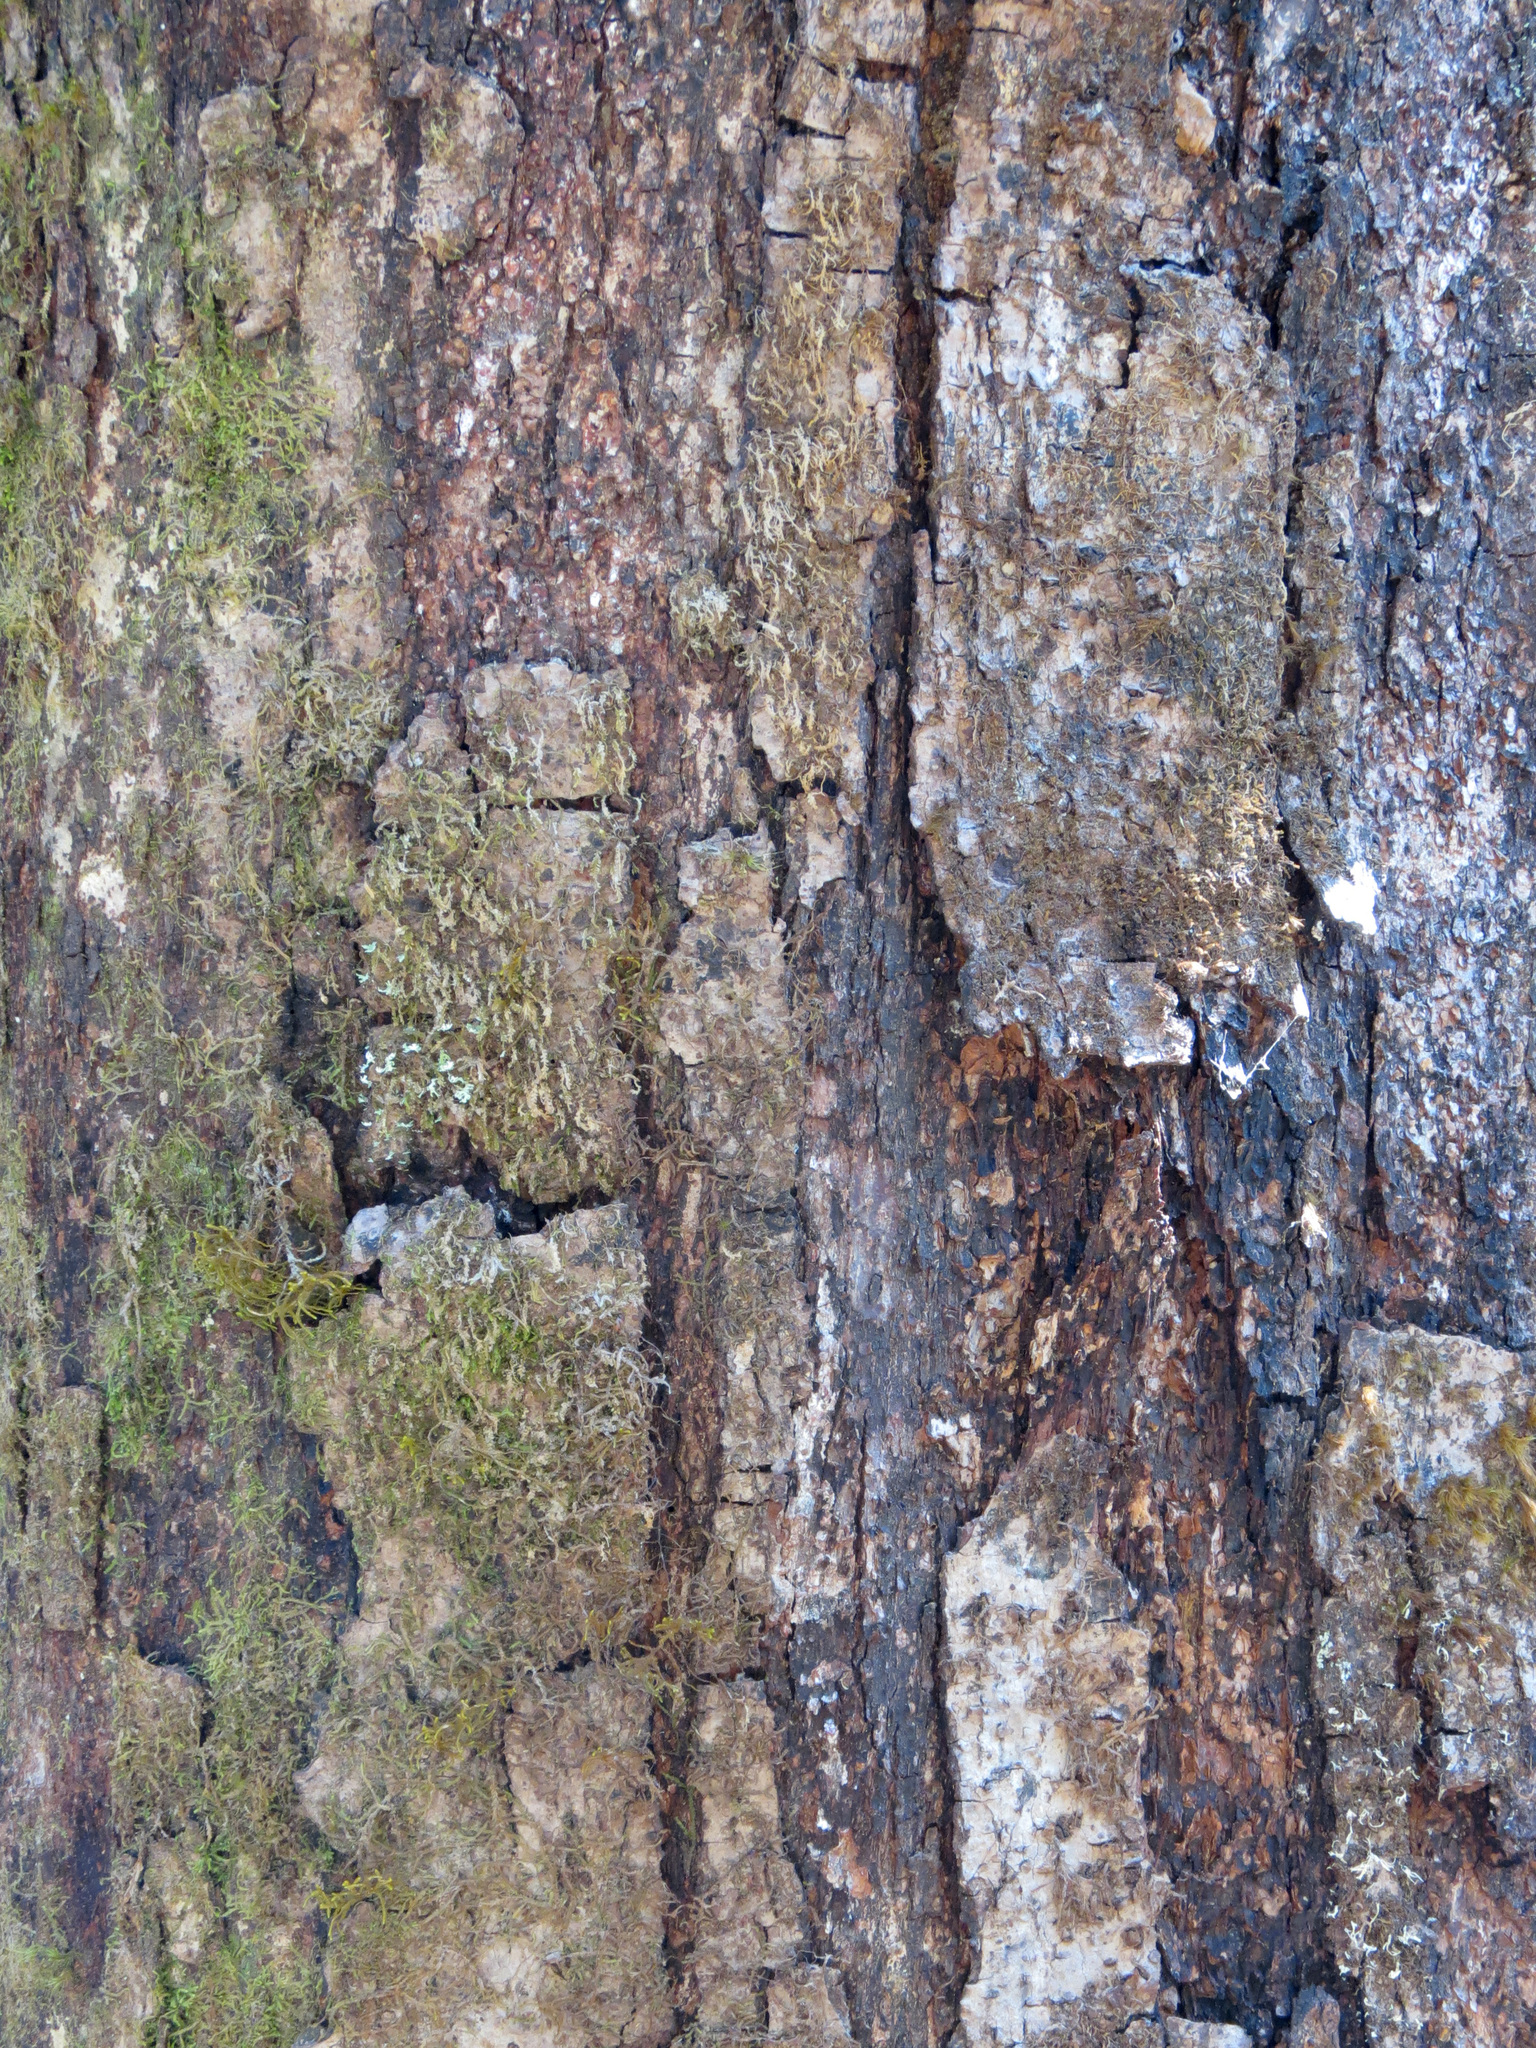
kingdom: Plantae
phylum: Tracheophyta
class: Magnoliopsida
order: Fagales
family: Nothofagaceae
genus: Nothofagus
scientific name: Nothofagus fusca
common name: Red beech
